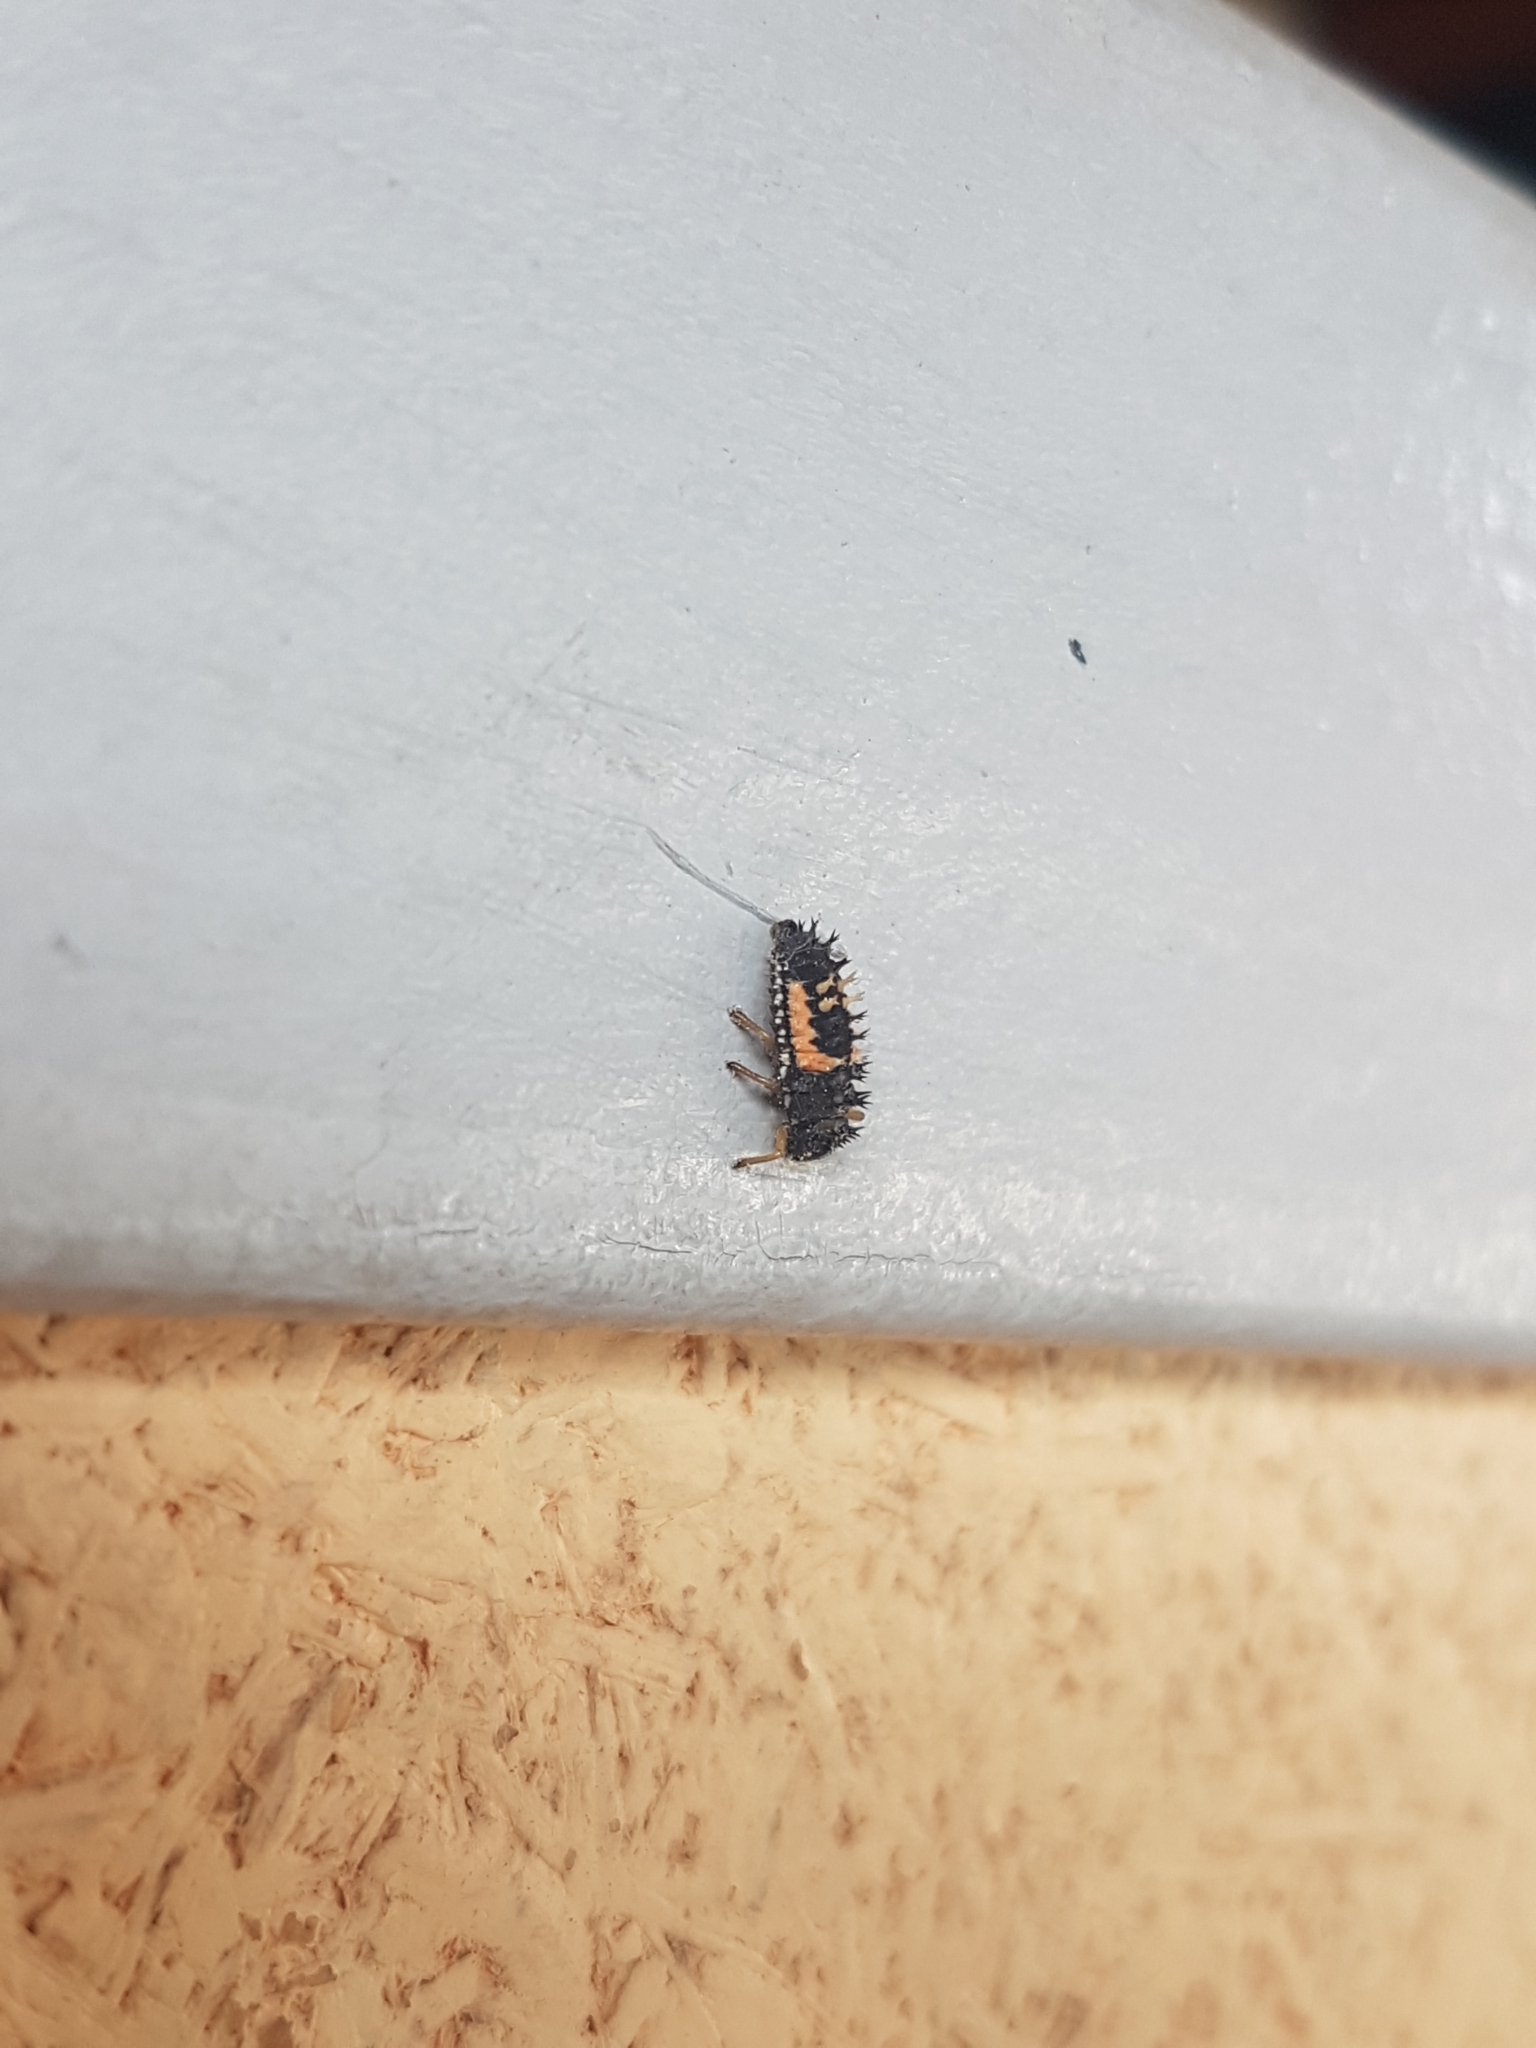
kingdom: Animalia
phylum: Arthropoda
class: Insecta
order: Coleoptera
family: Coccinellidae
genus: Harmonia
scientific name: Harmonia axyridis
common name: Harlequin ladybird
